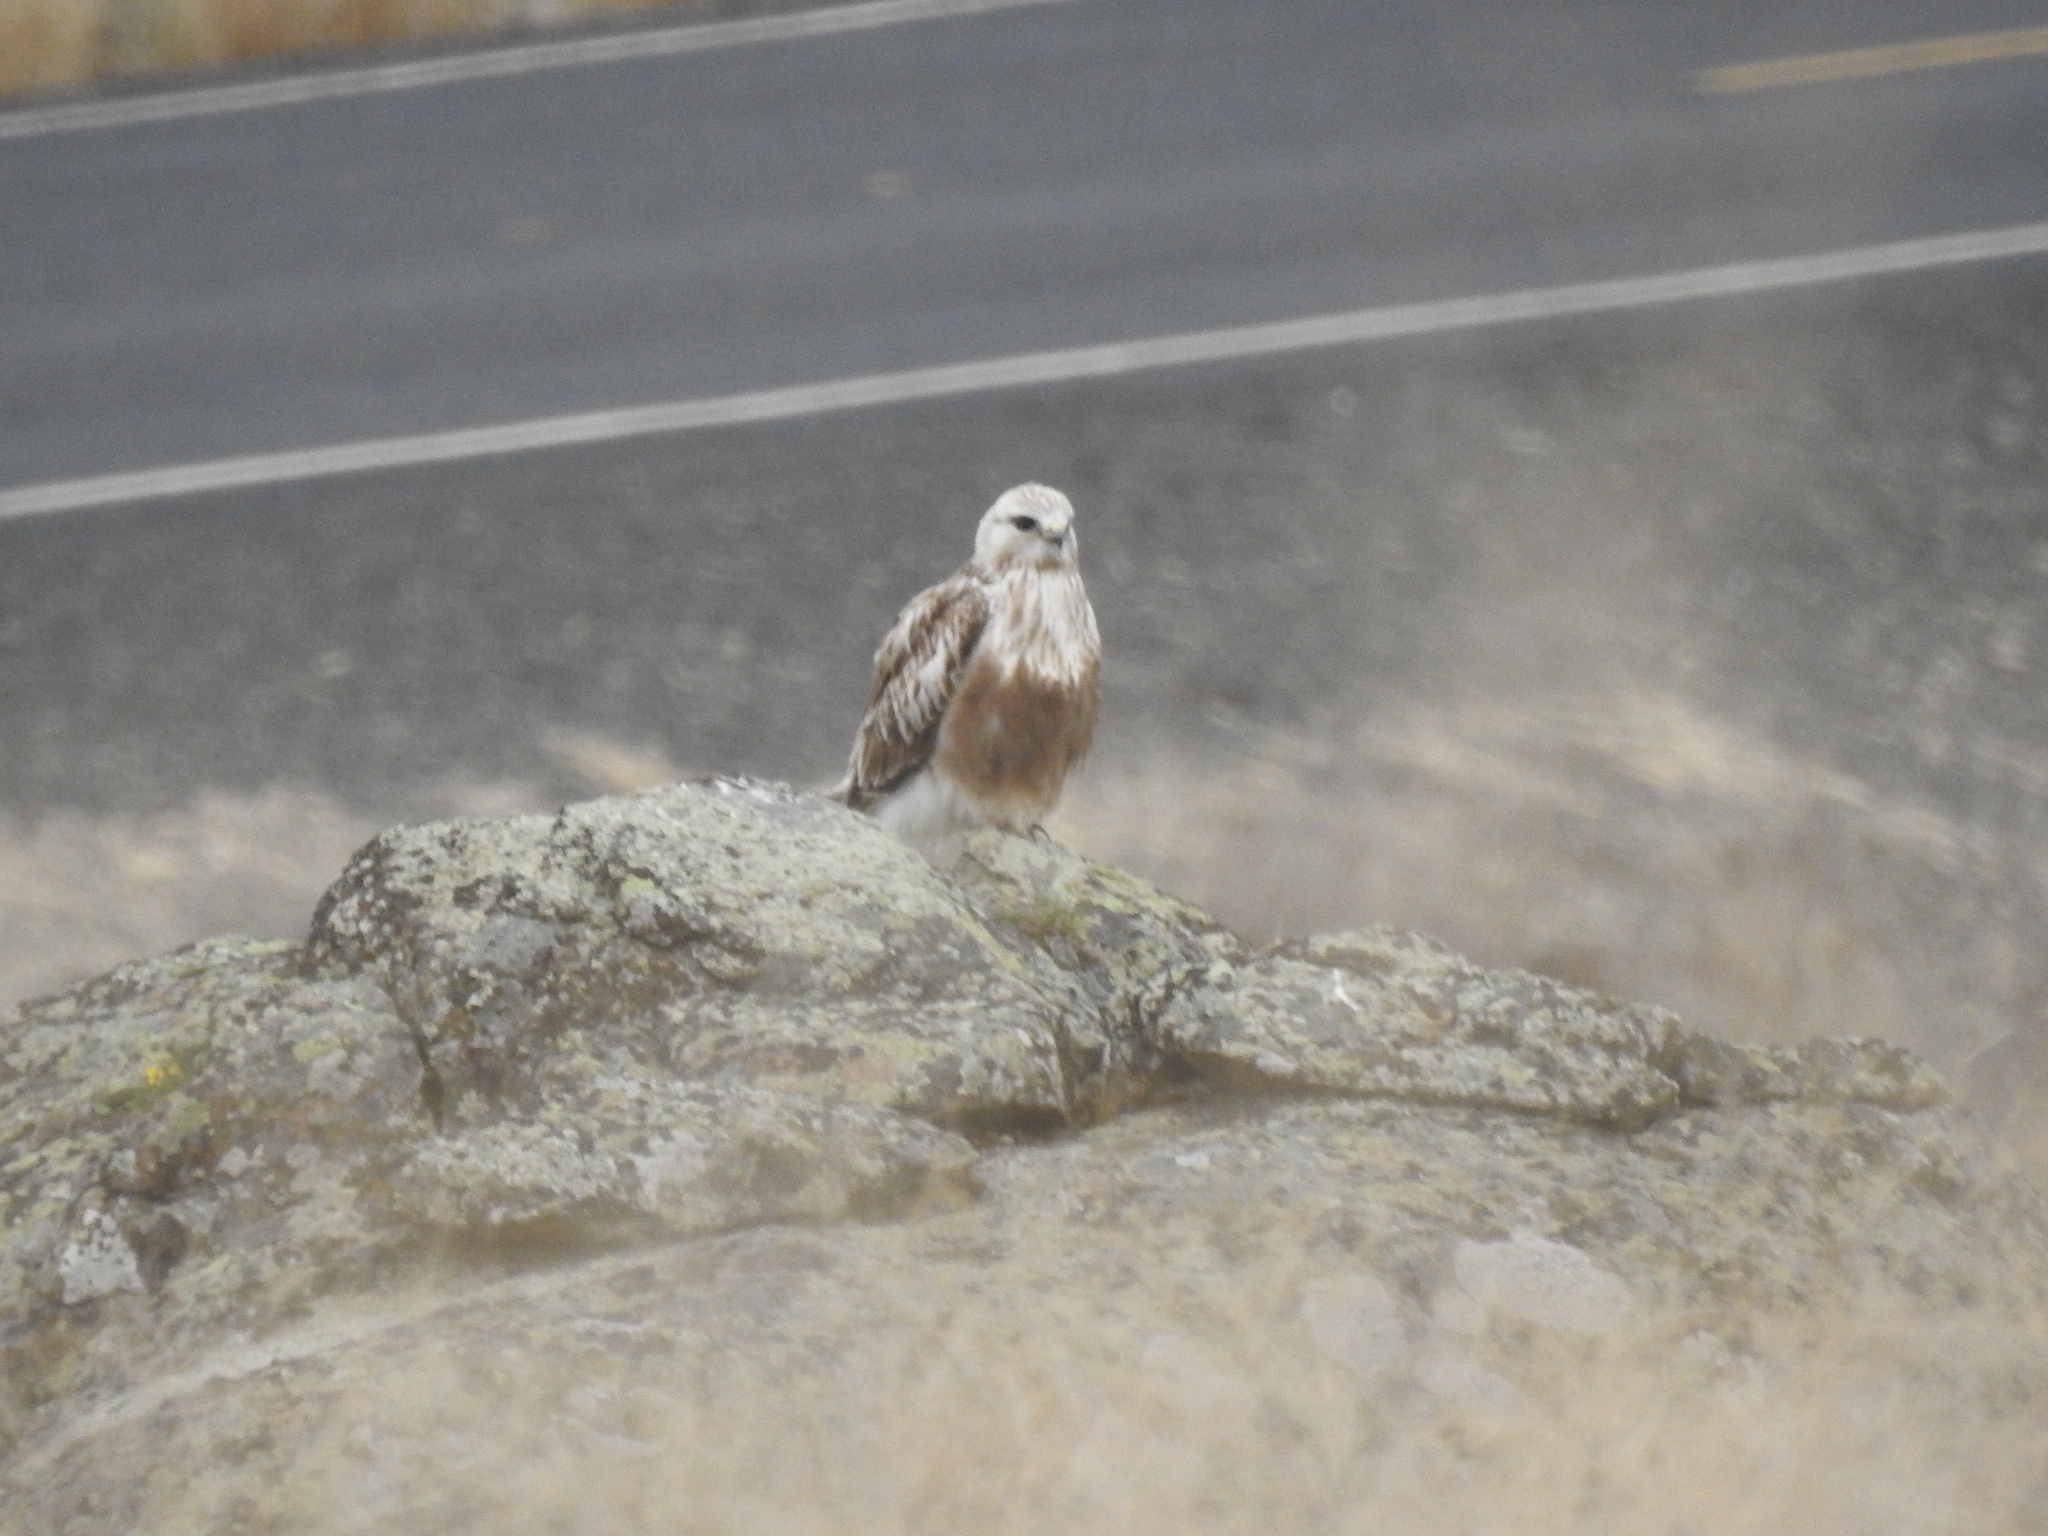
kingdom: Animalia
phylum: Chordata
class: Aves
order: Accipitriformes
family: Accipitridae
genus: Buteo
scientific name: Buteo lagopus
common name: Rough-legged buzzard
